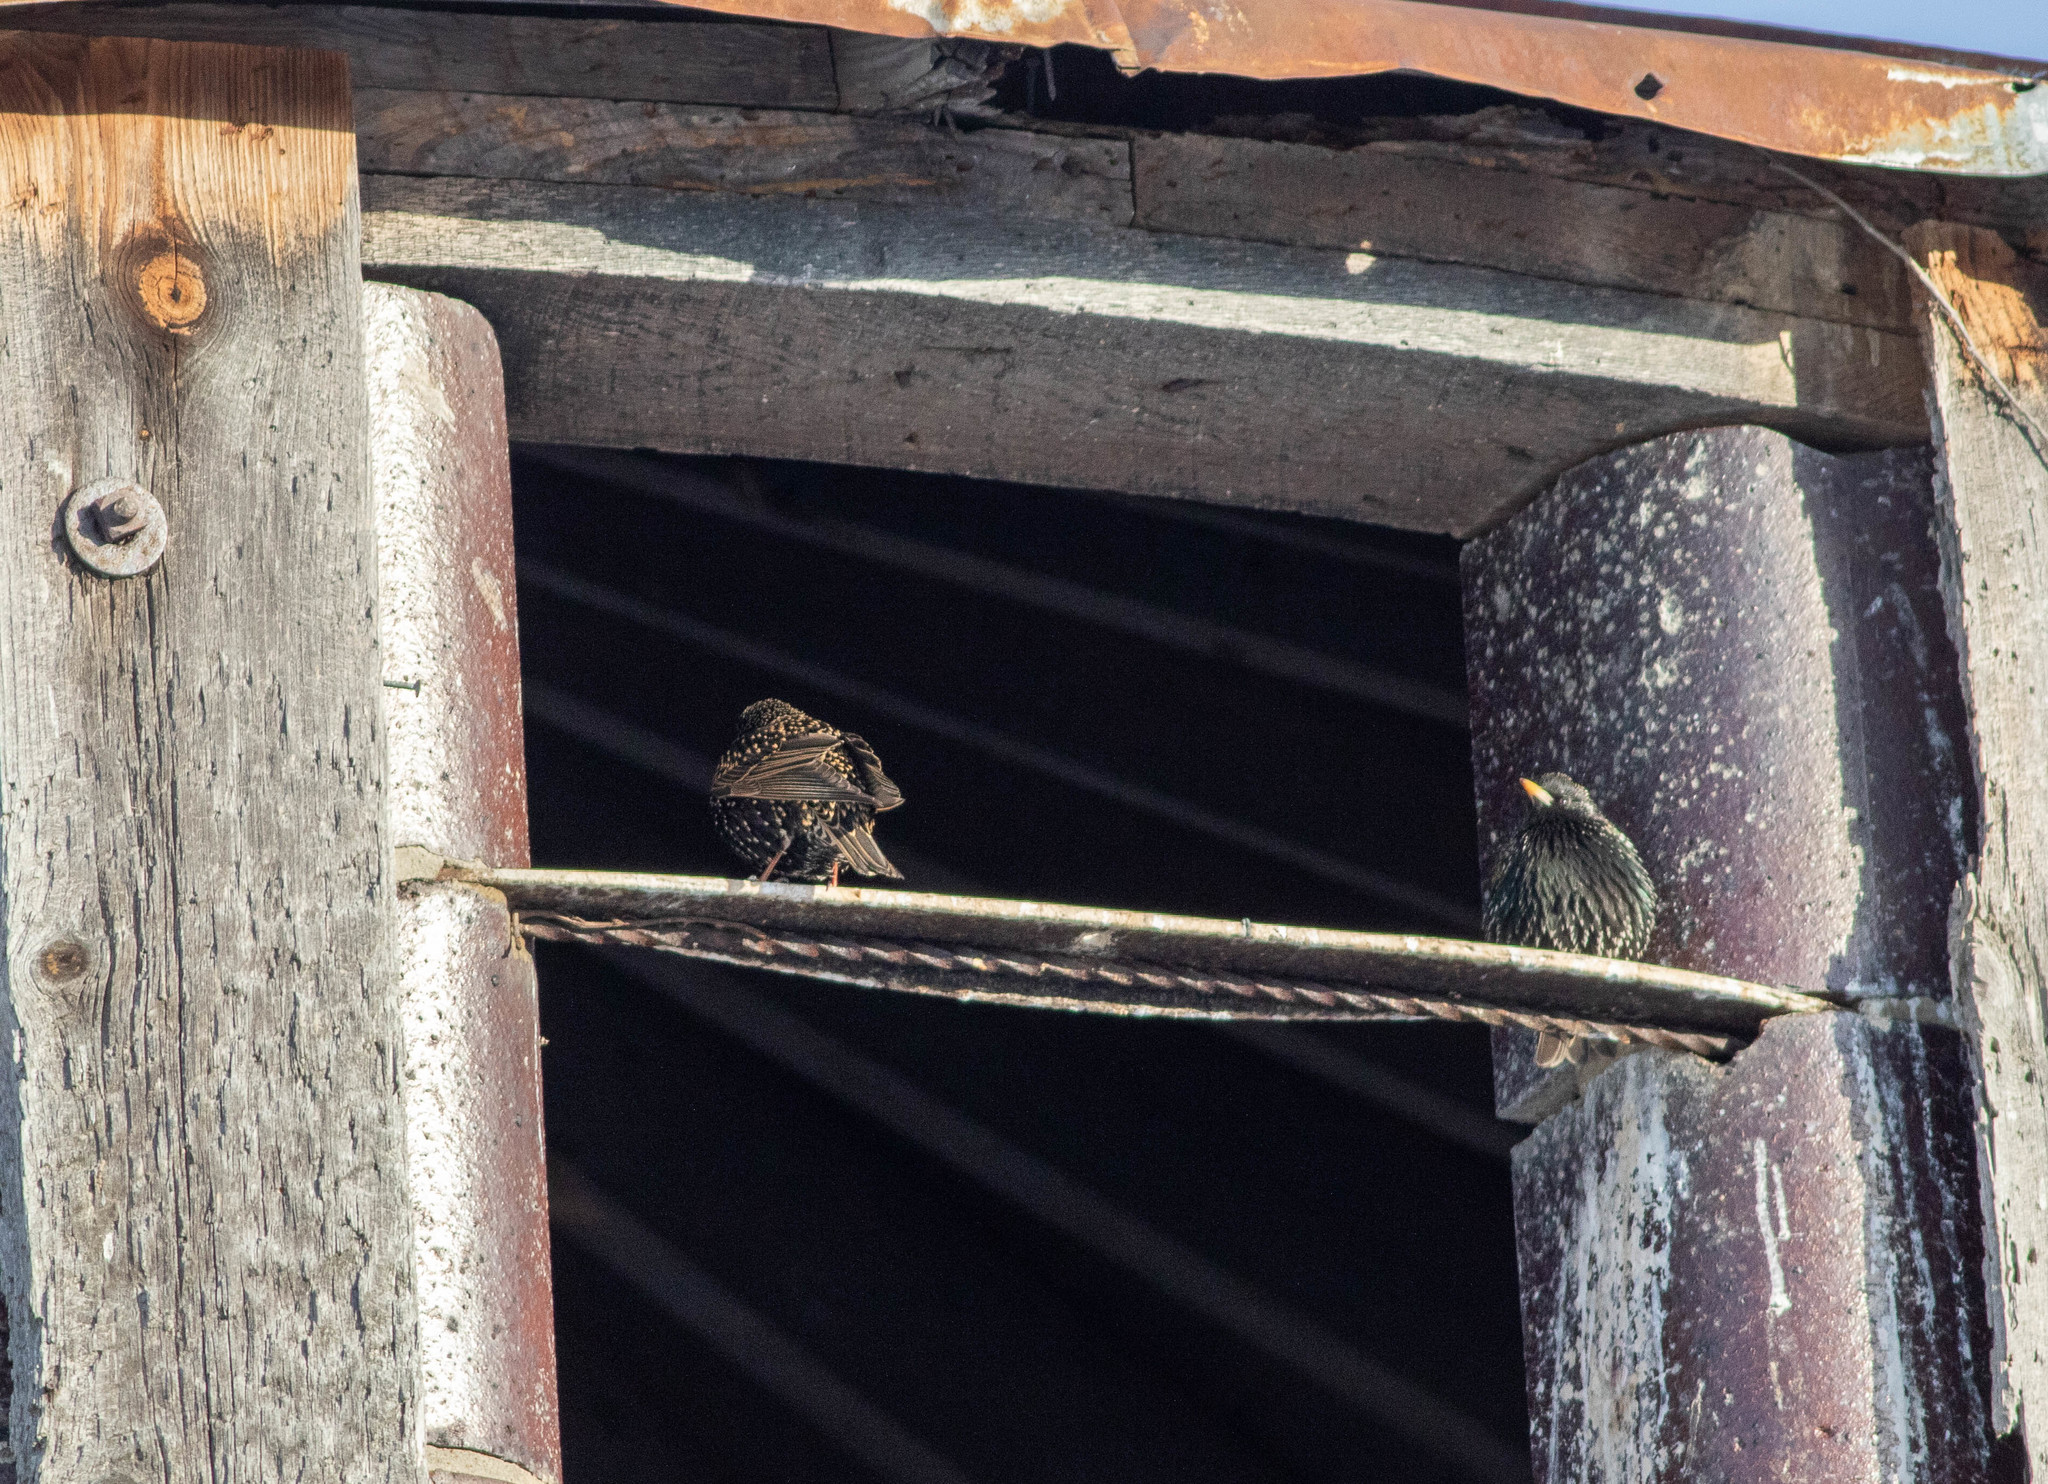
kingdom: Animalia
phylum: Chordata
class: Aves
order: Passeriformes
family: Sturnidae
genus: Sturnus
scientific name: Sturnus vulgaris
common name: Common starling
